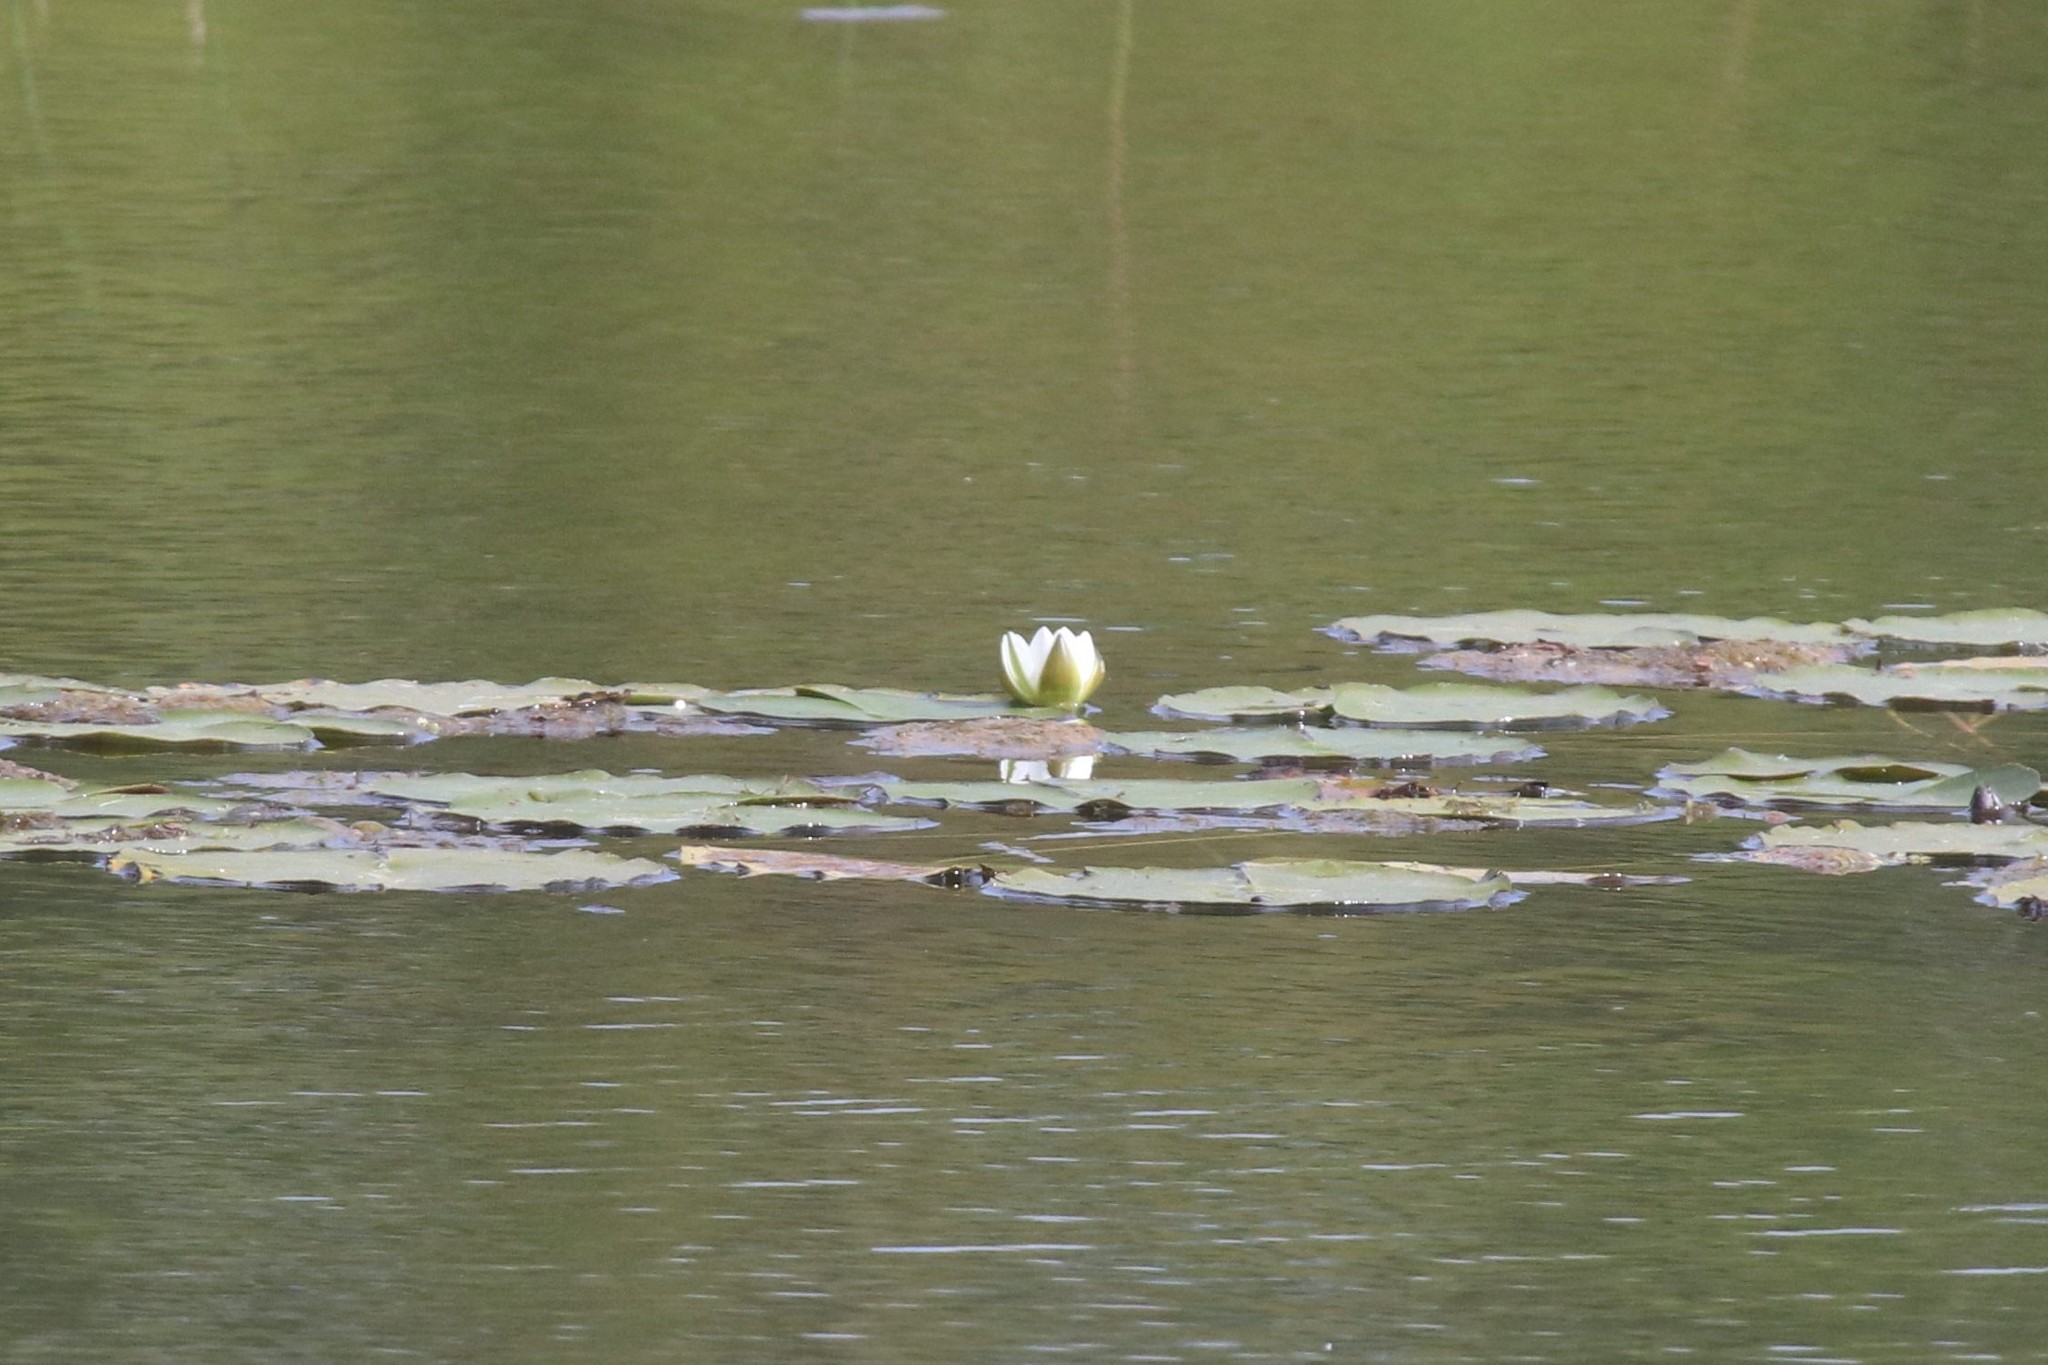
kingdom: Plantae
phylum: Tracheophyta
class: Magnoliopsida
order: Nymphaeales
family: Nymphaeaceae
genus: Nymphaea
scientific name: Nymphaea candida
